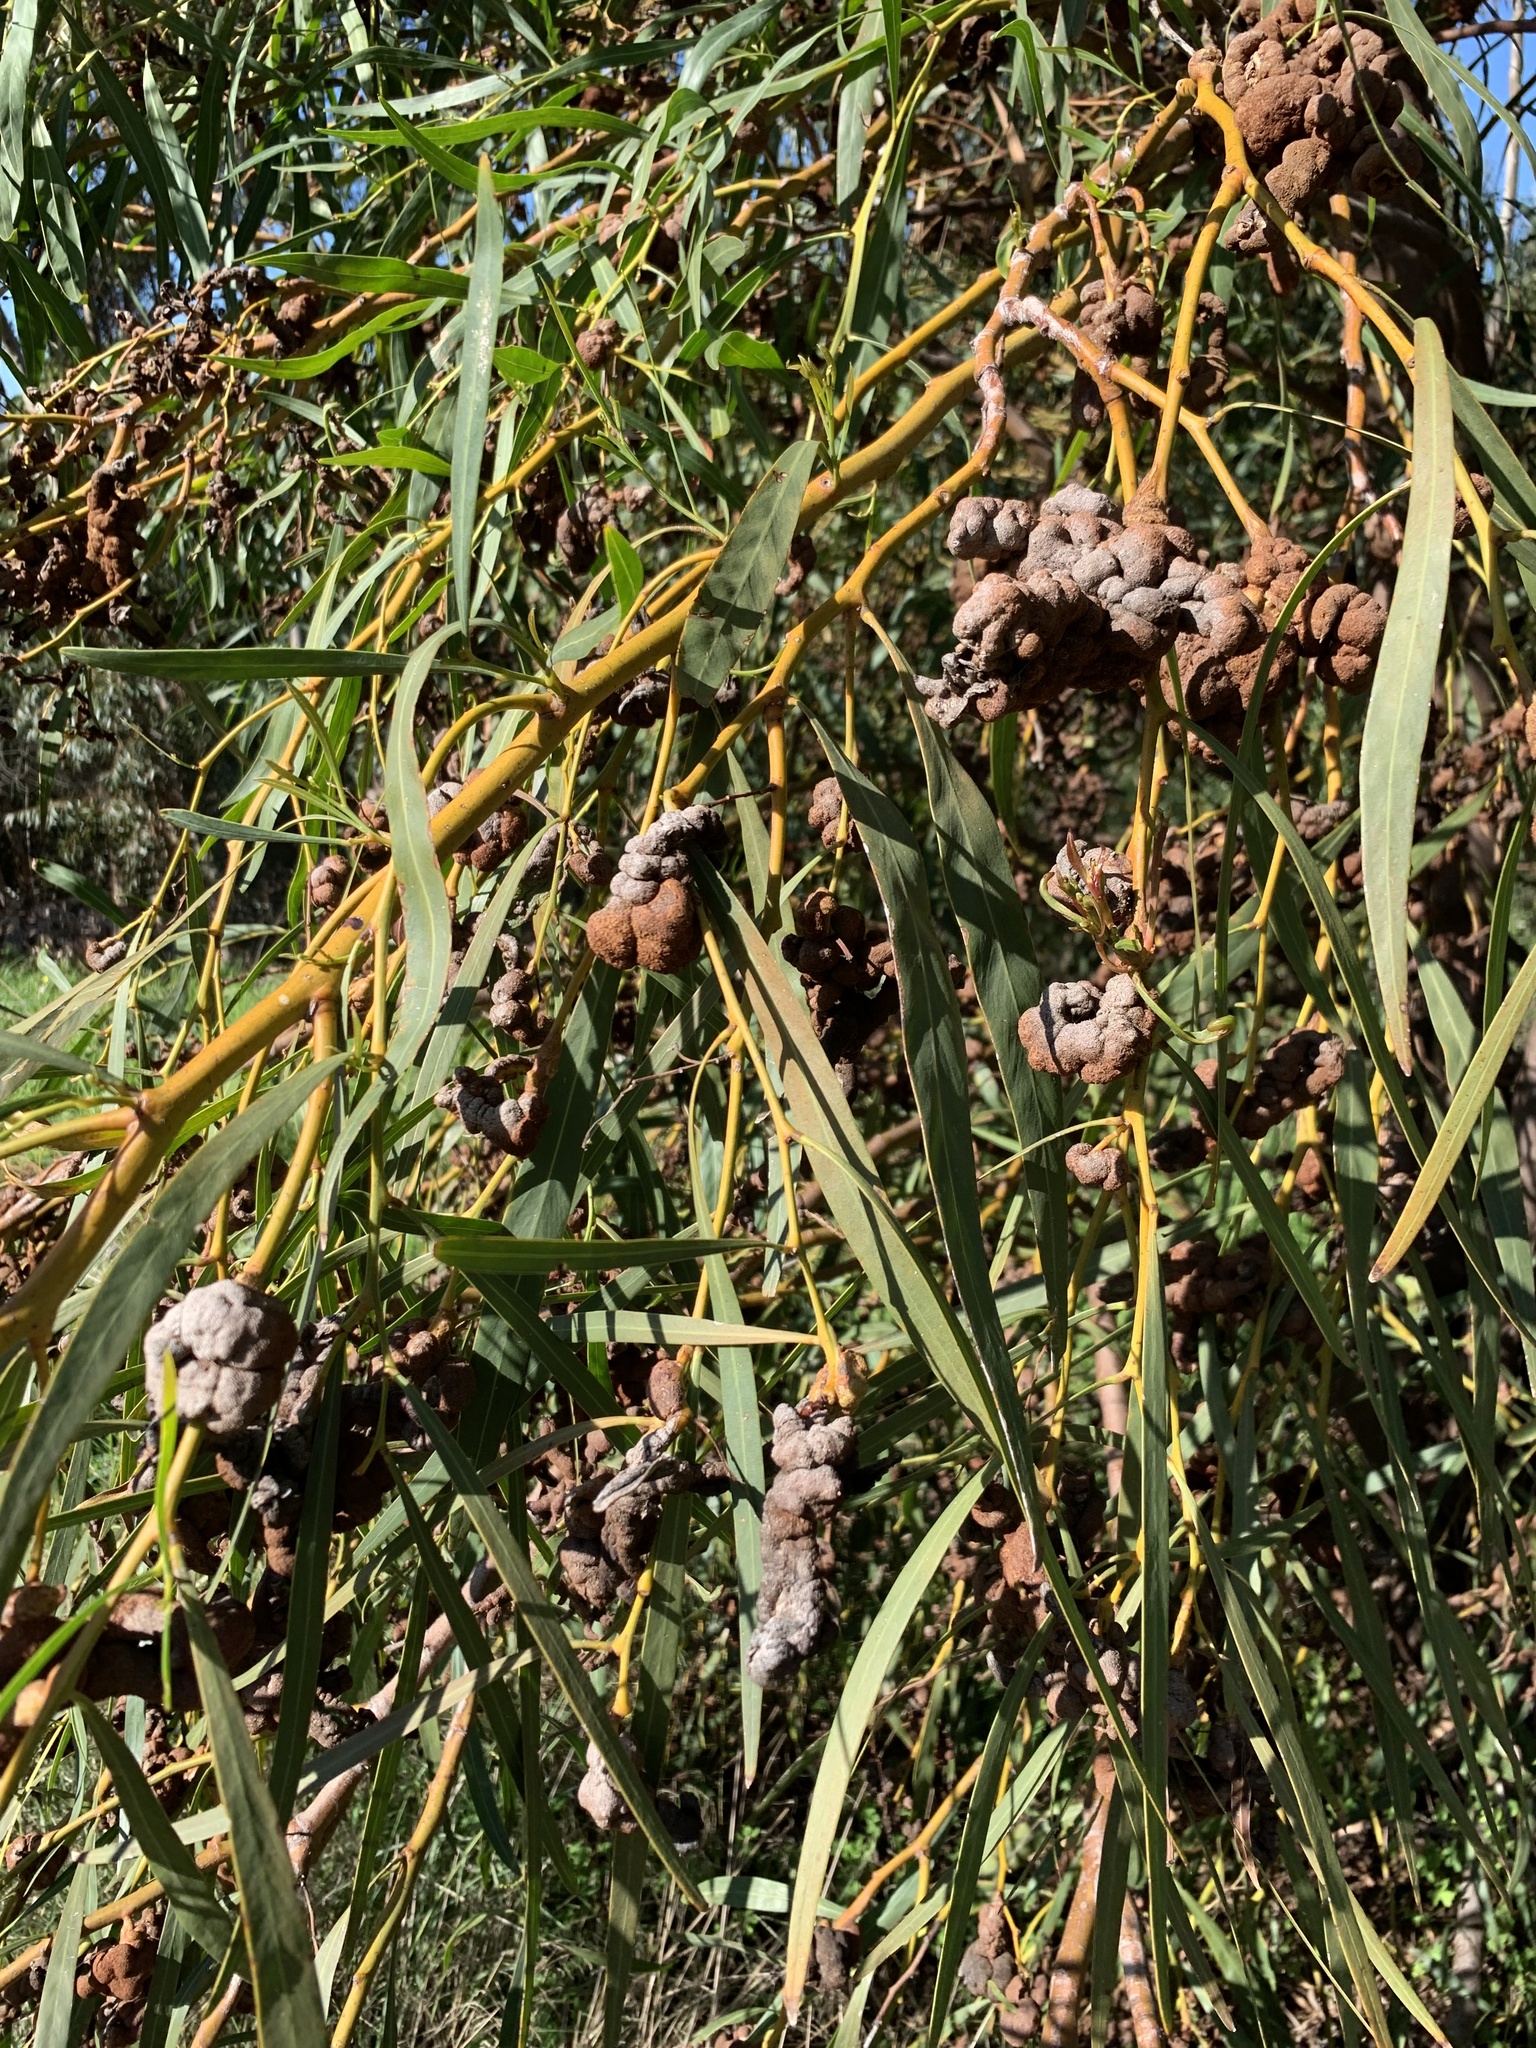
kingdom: Plantae
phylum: Tracheophyta
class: Magnoliopsida
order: Fabales
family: Fabaceae
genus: Acacia
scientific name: Acacia saligna
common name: Orange wattle
